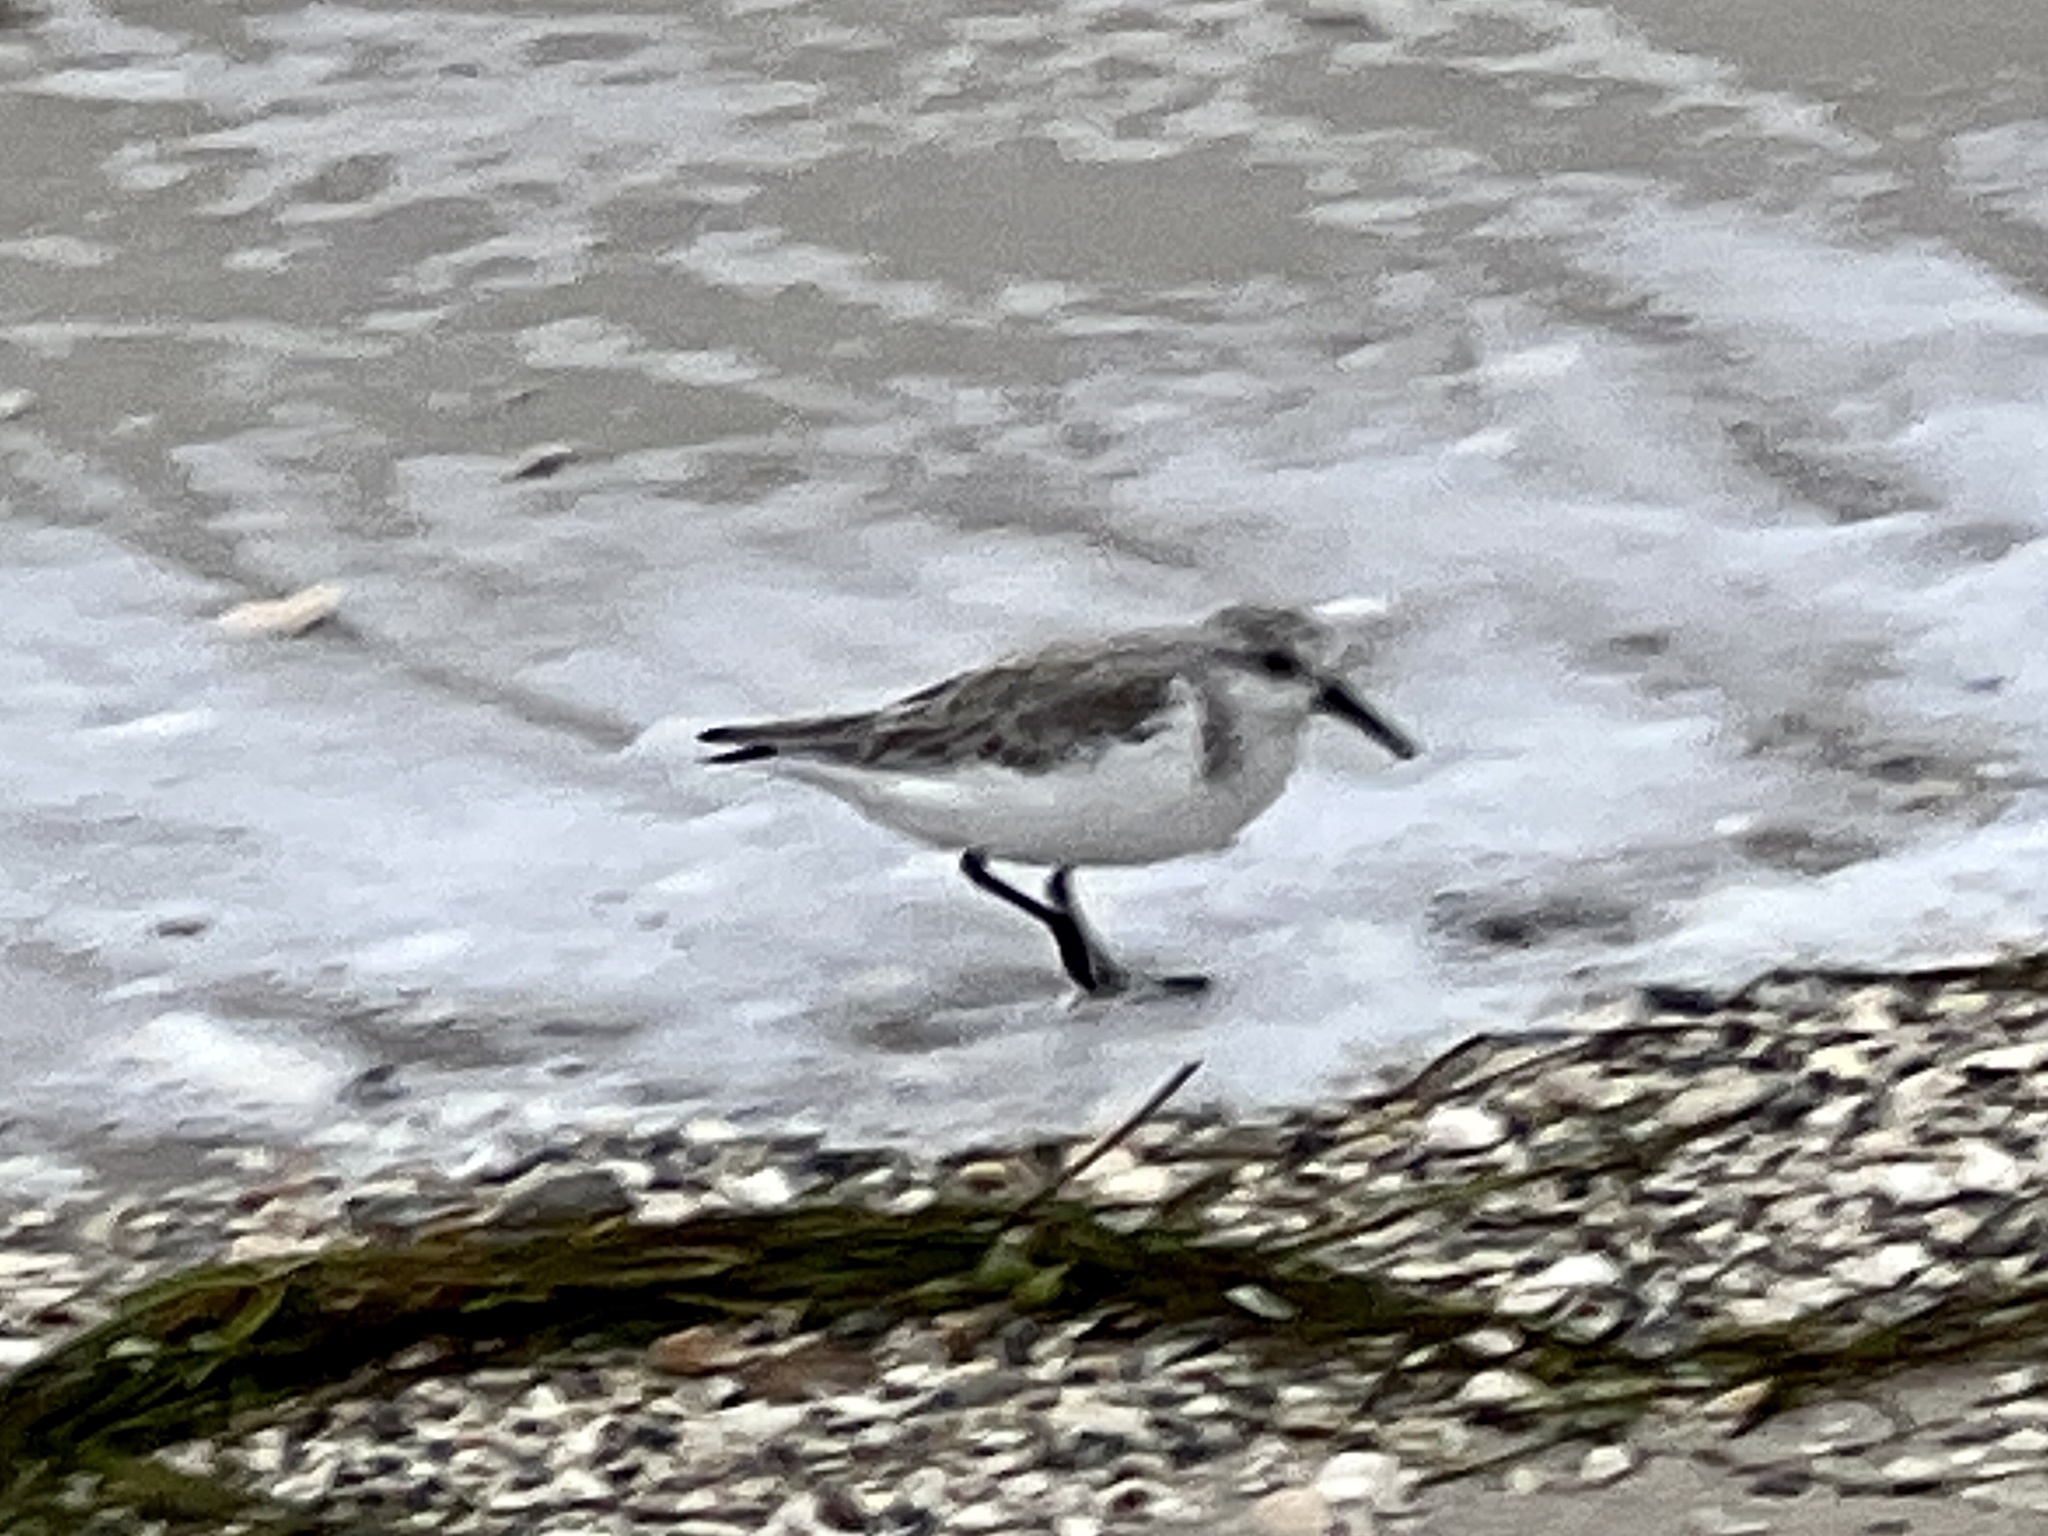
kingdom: Animalia
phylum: Chordata
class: Aves
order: Charadriiformes
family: Scolopacidae
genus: Calidris
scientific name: Calidris alba
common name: Sanderling
